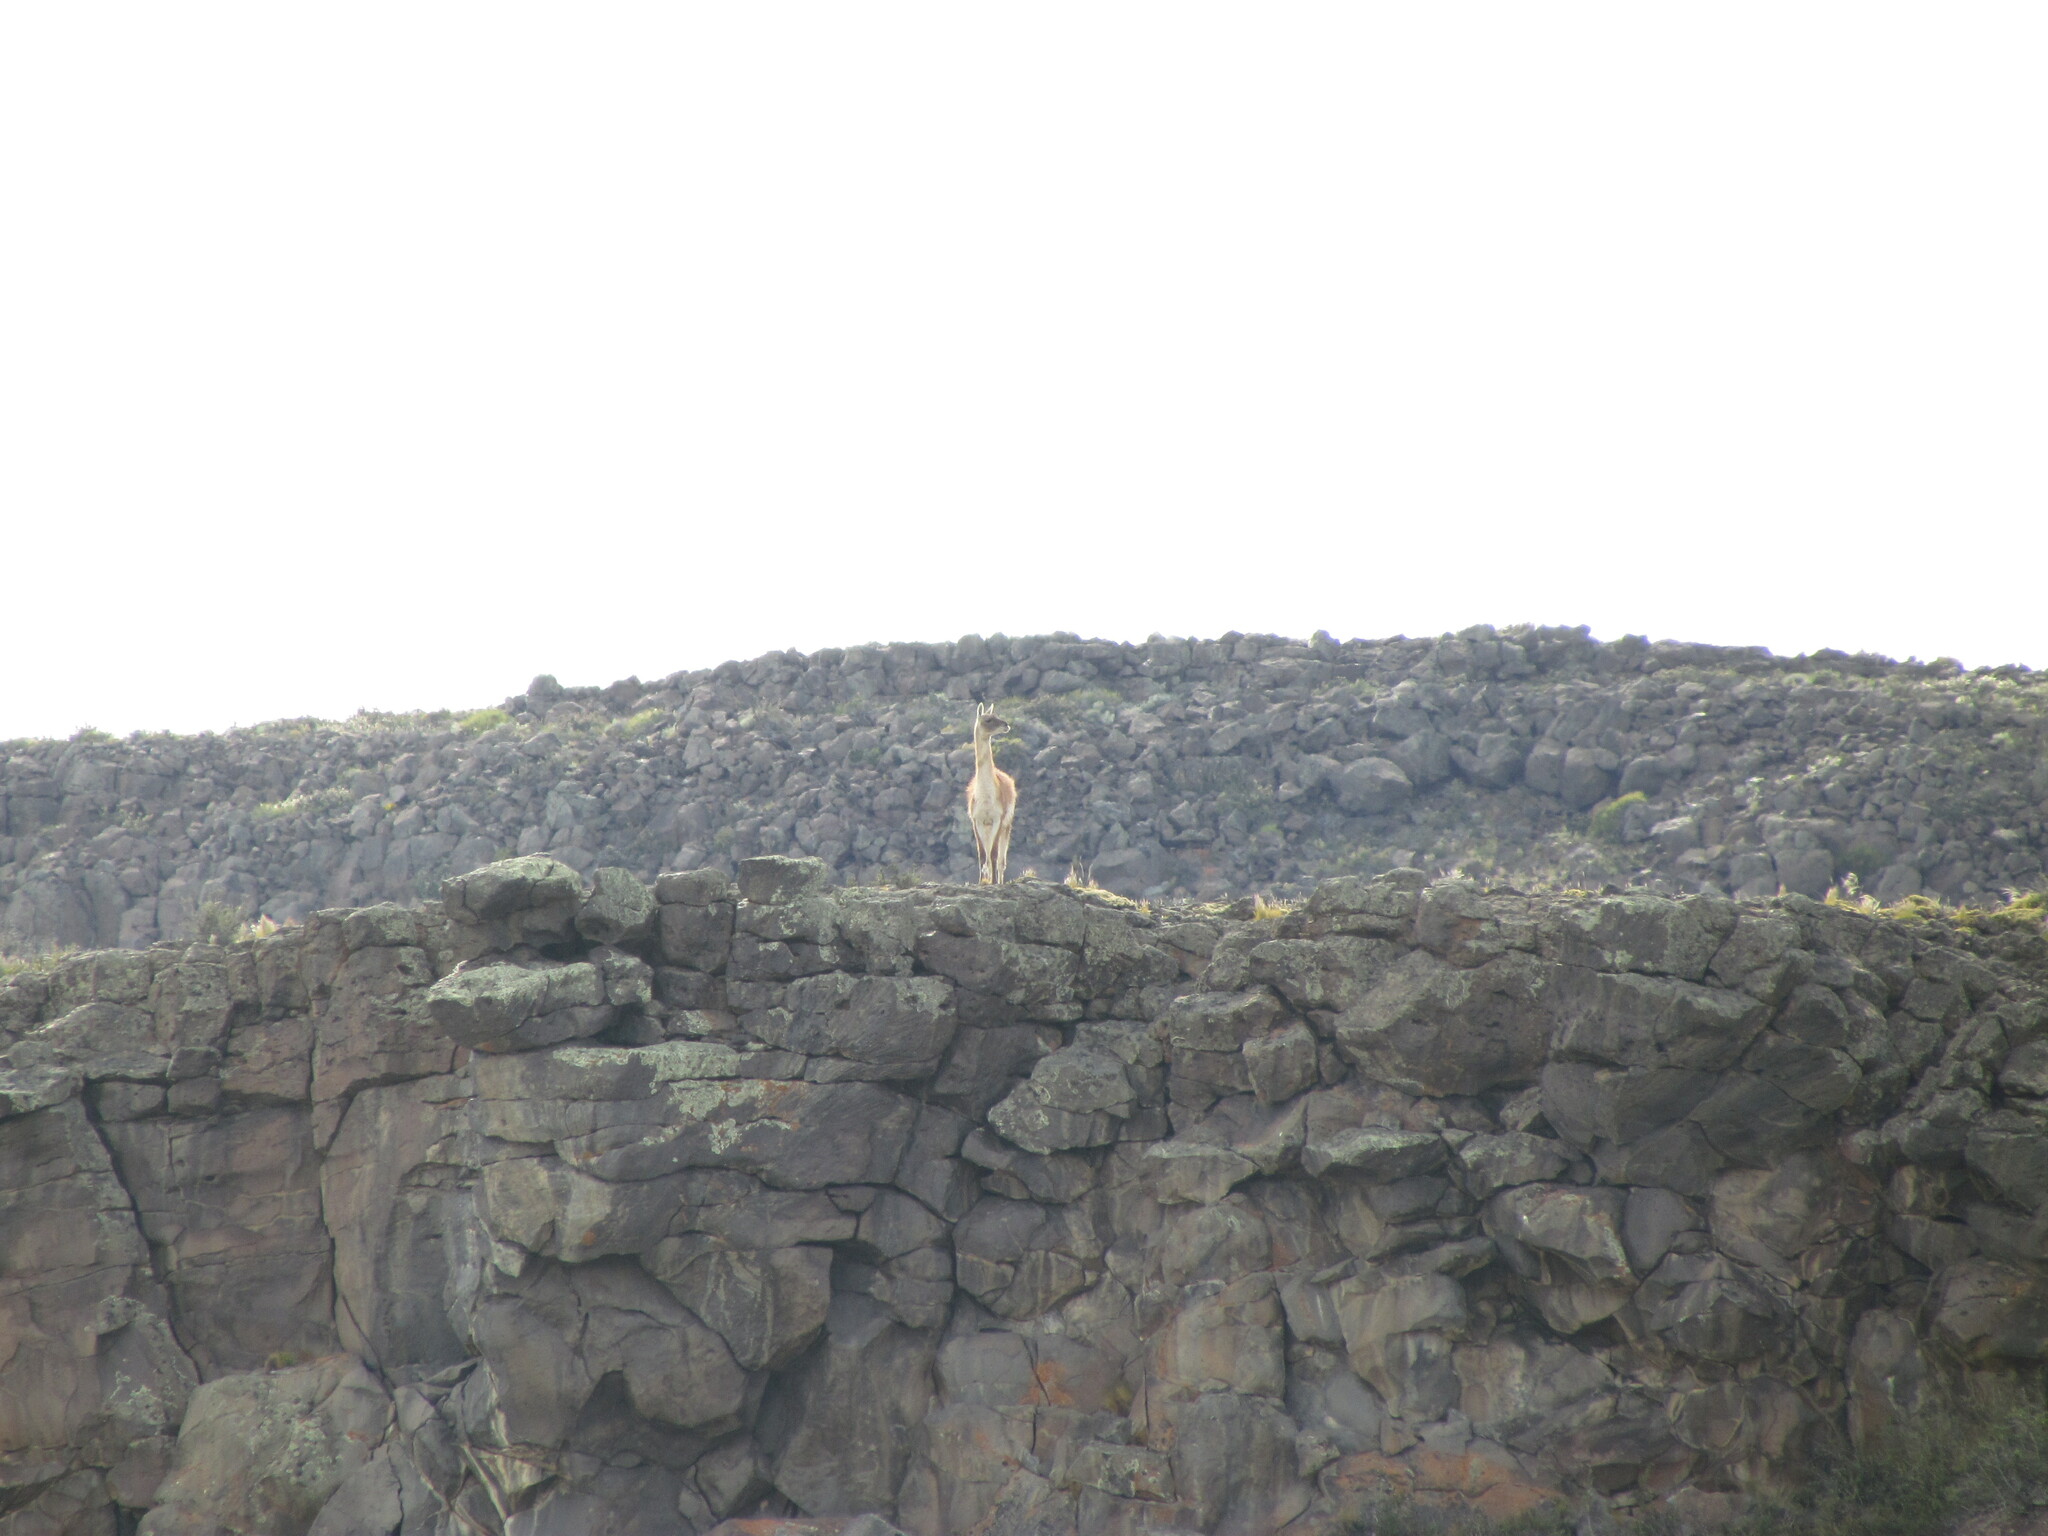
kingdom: Animalia
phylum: Chordata
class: Mammalia
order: Artiodactyla
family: Camelidae
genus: Lama
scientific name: Lama glama
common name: Llama
